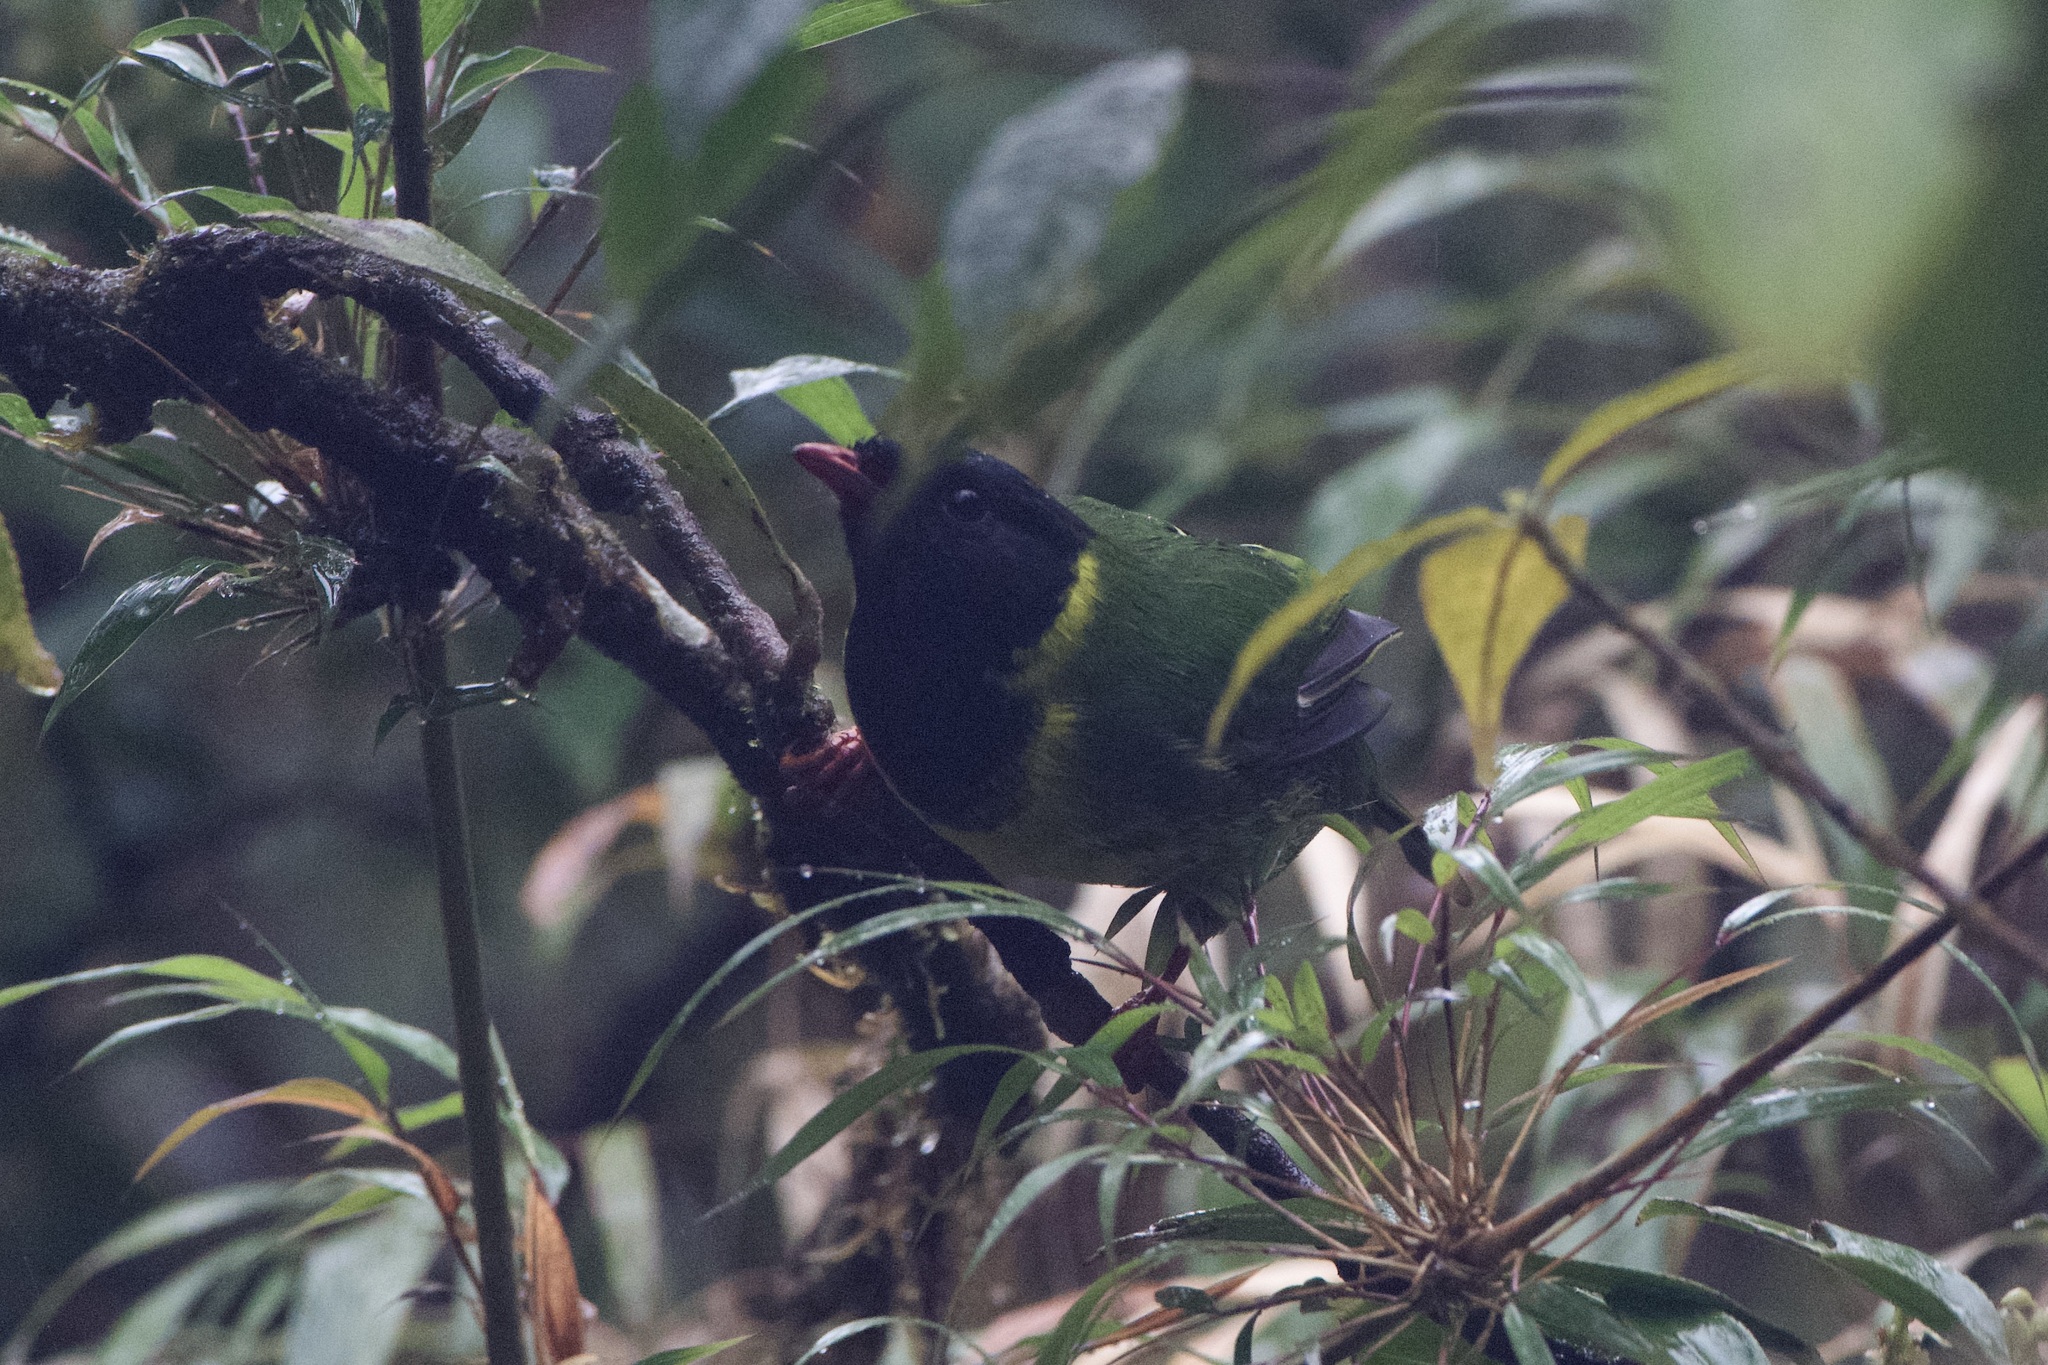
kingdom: Animalia
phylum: Chordata
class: Aves
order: Passeriformes
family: Cotingidae
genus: Pipreola
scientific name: Pipreola riefferii
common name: Green-and-black fruiteater
